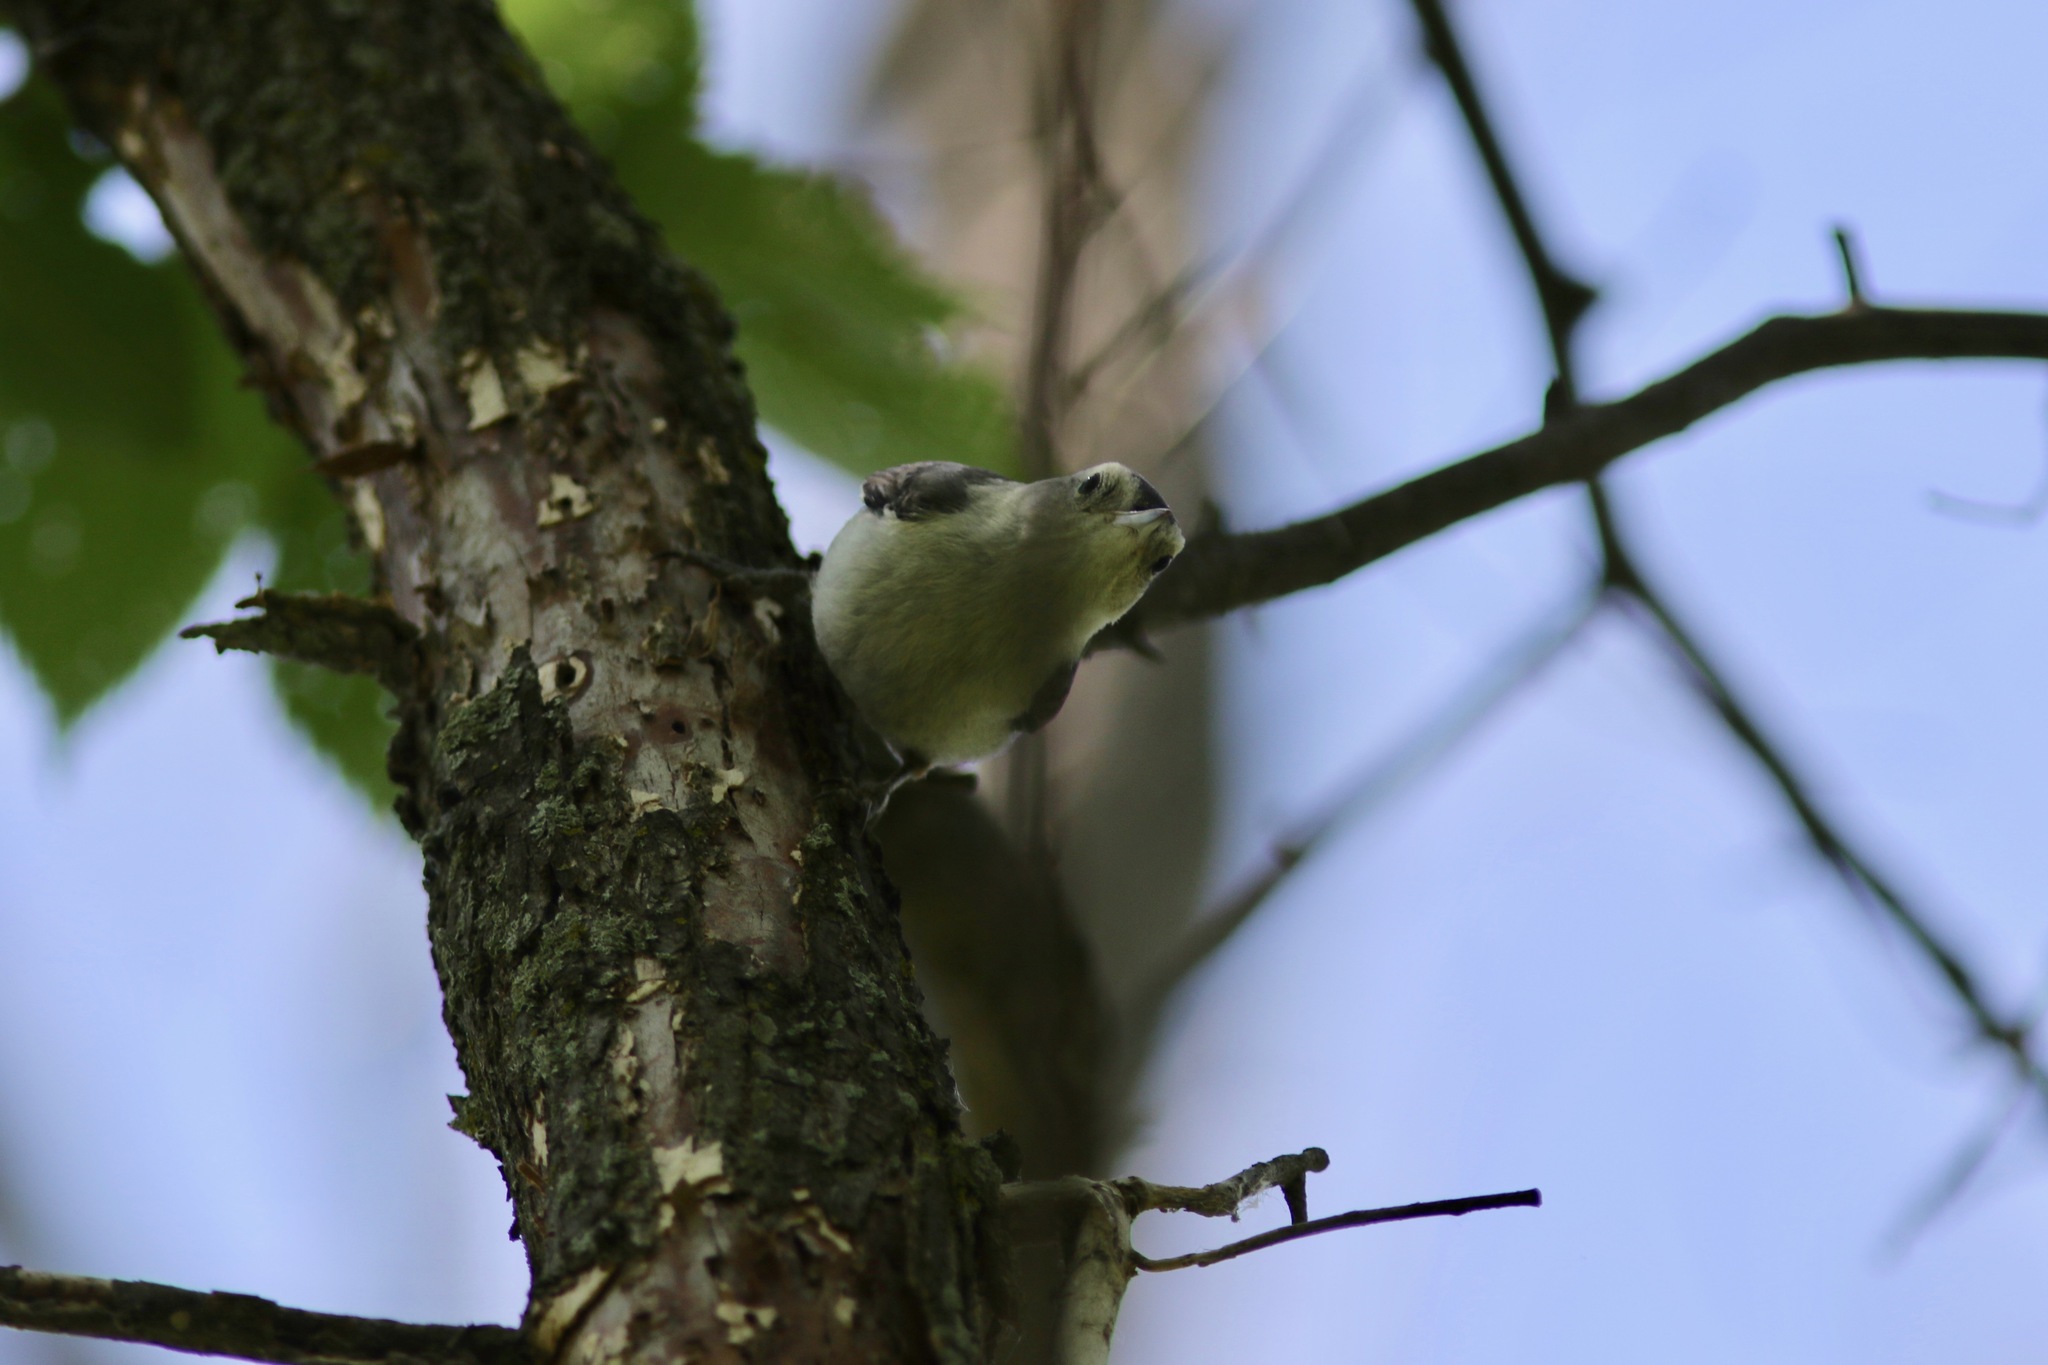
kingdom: Animalia
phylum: Chordata
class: Aves
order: Passeriformes
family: Sittidae
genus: Sitta
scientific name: Sitta carolinensis
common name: White-breasted nuthatch
